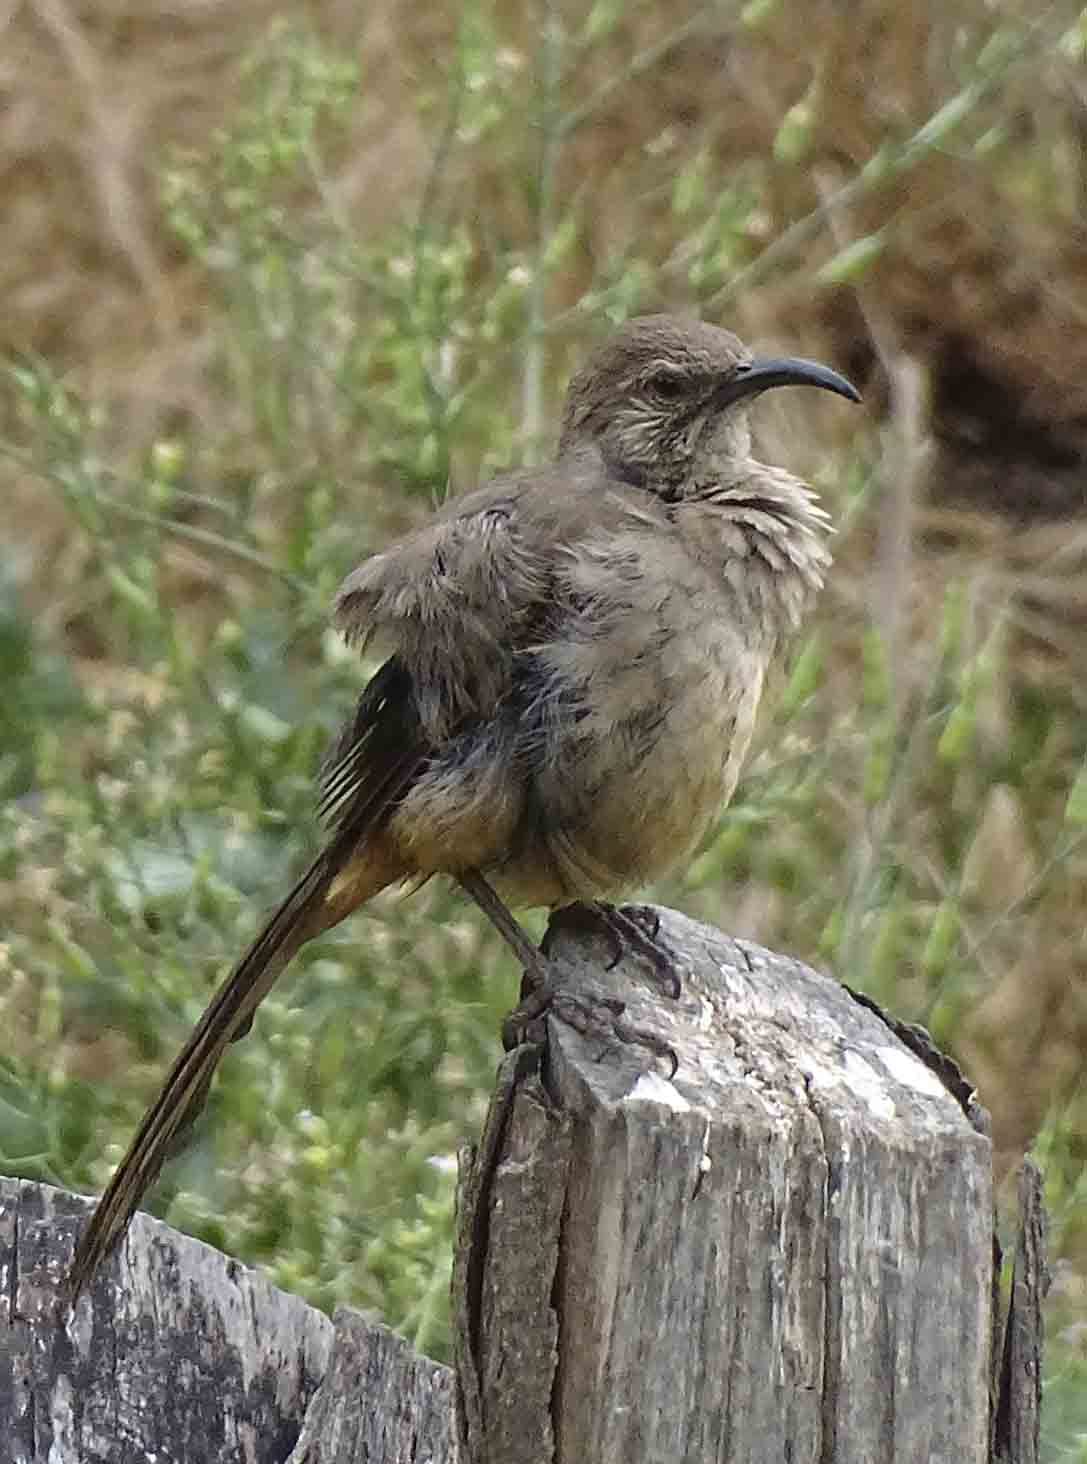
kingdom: Animalia
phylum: Chordata
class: Aves
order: Passeriformes
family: Mimidae
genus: Toxostoma
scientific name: Toxostoma redivivum
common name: California thrasher
